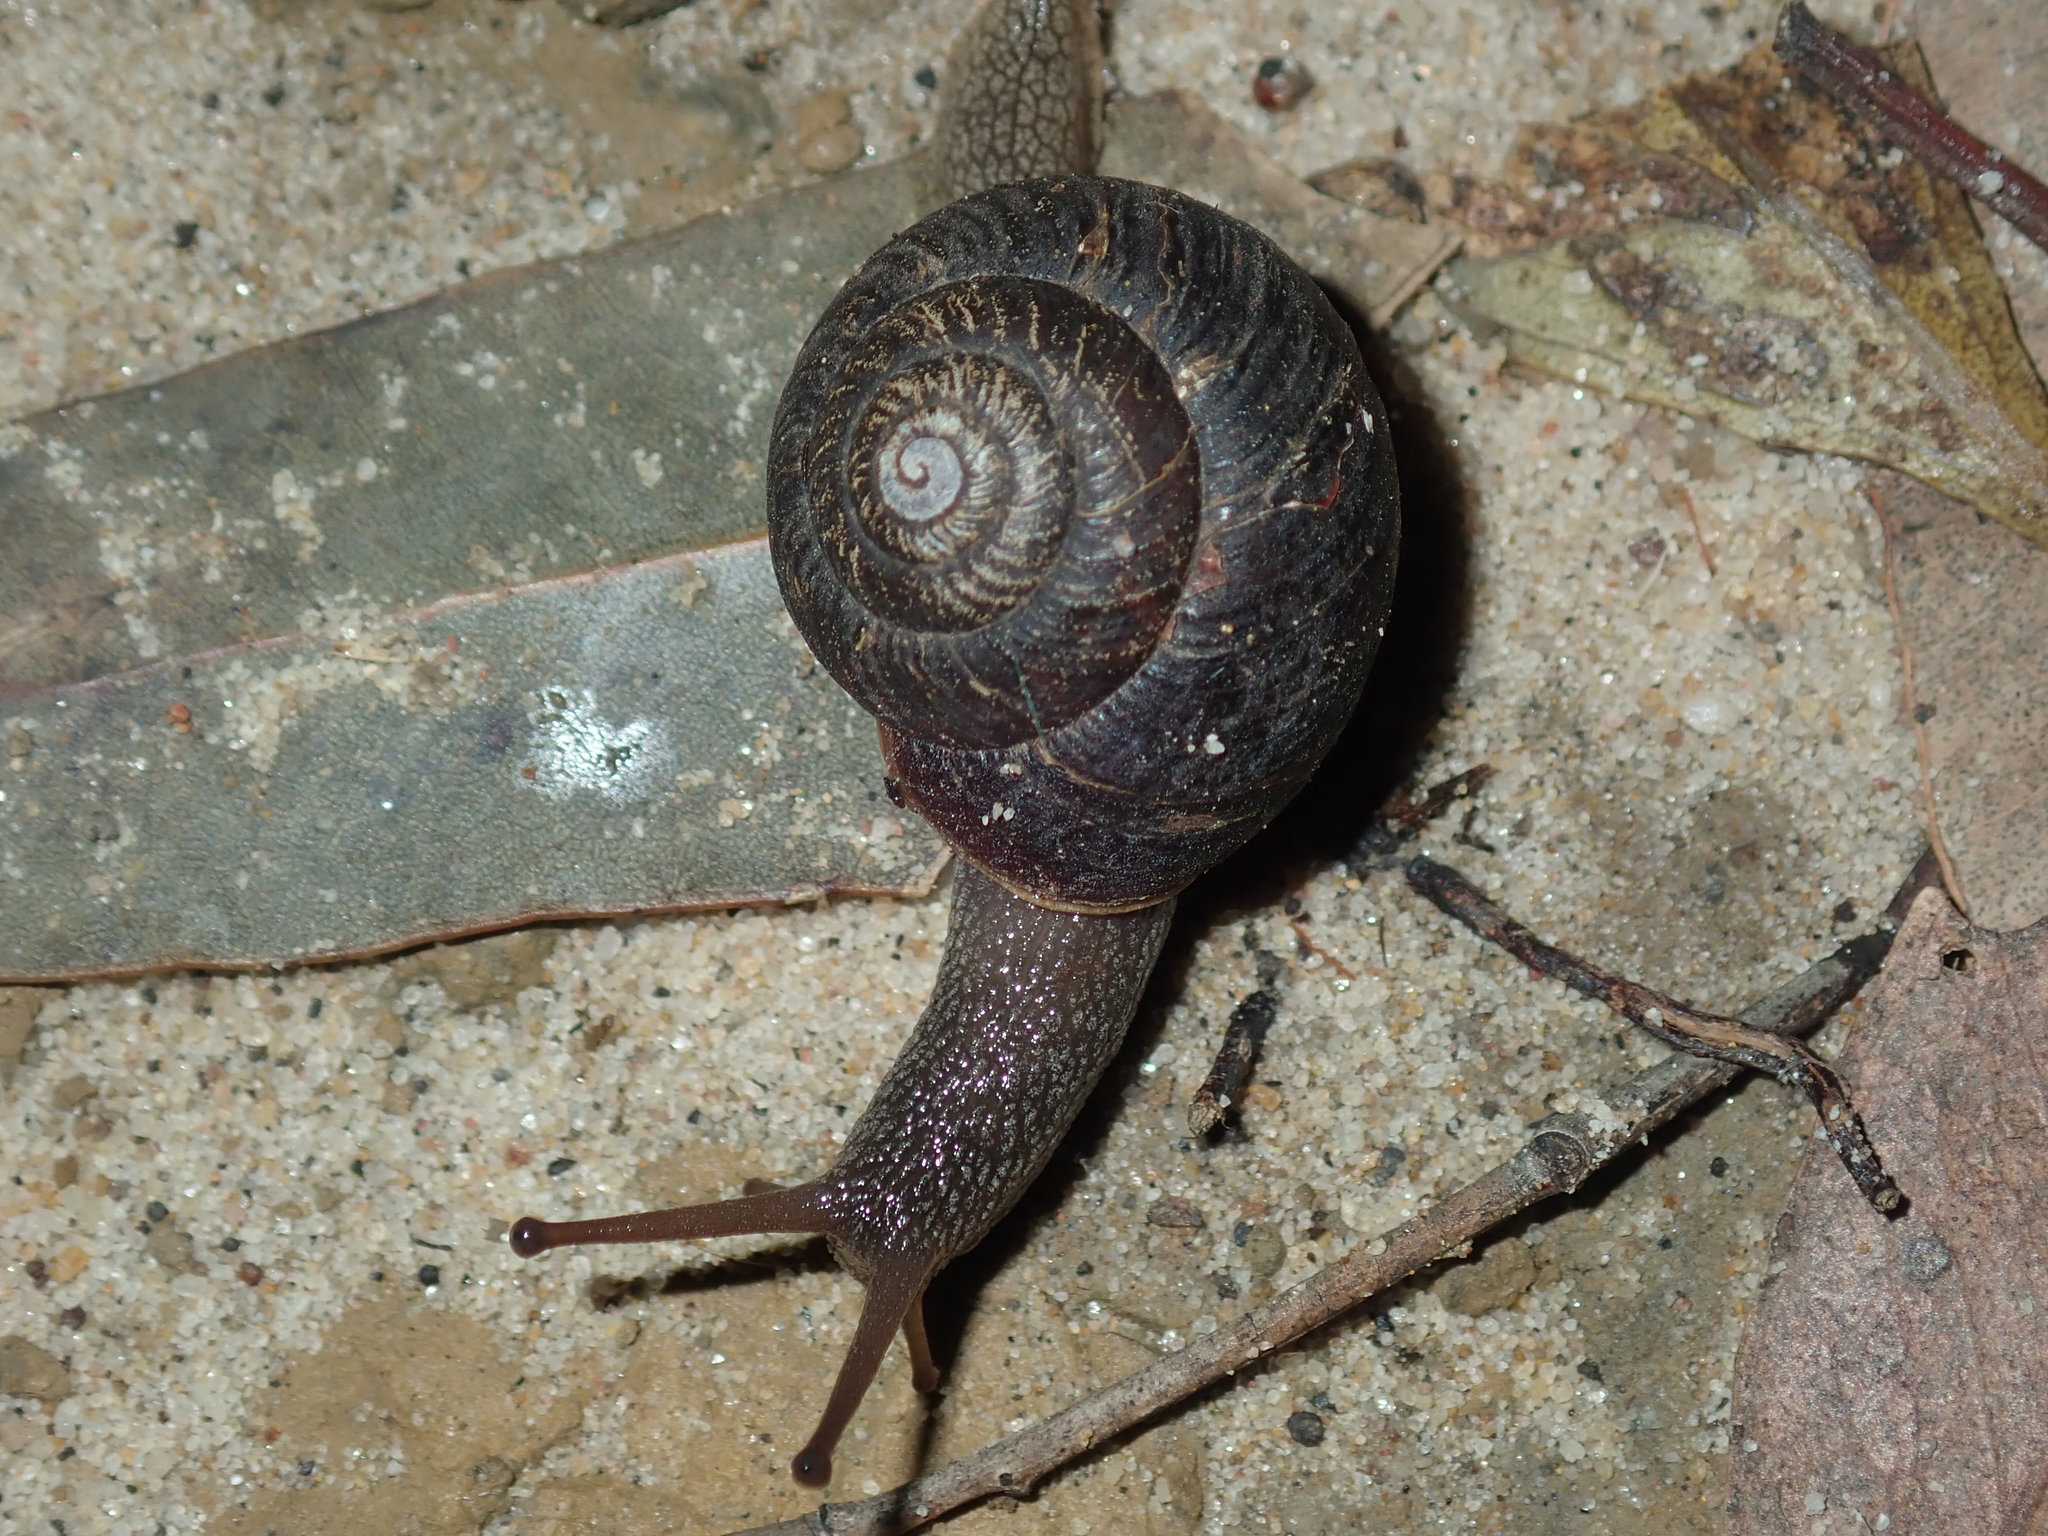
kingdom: Animalia
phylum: Mollusca
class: Gastropoda
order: Stylommatophora
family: Camaenidae
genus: Sauroconcha
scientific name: Sauroconcha sheai
